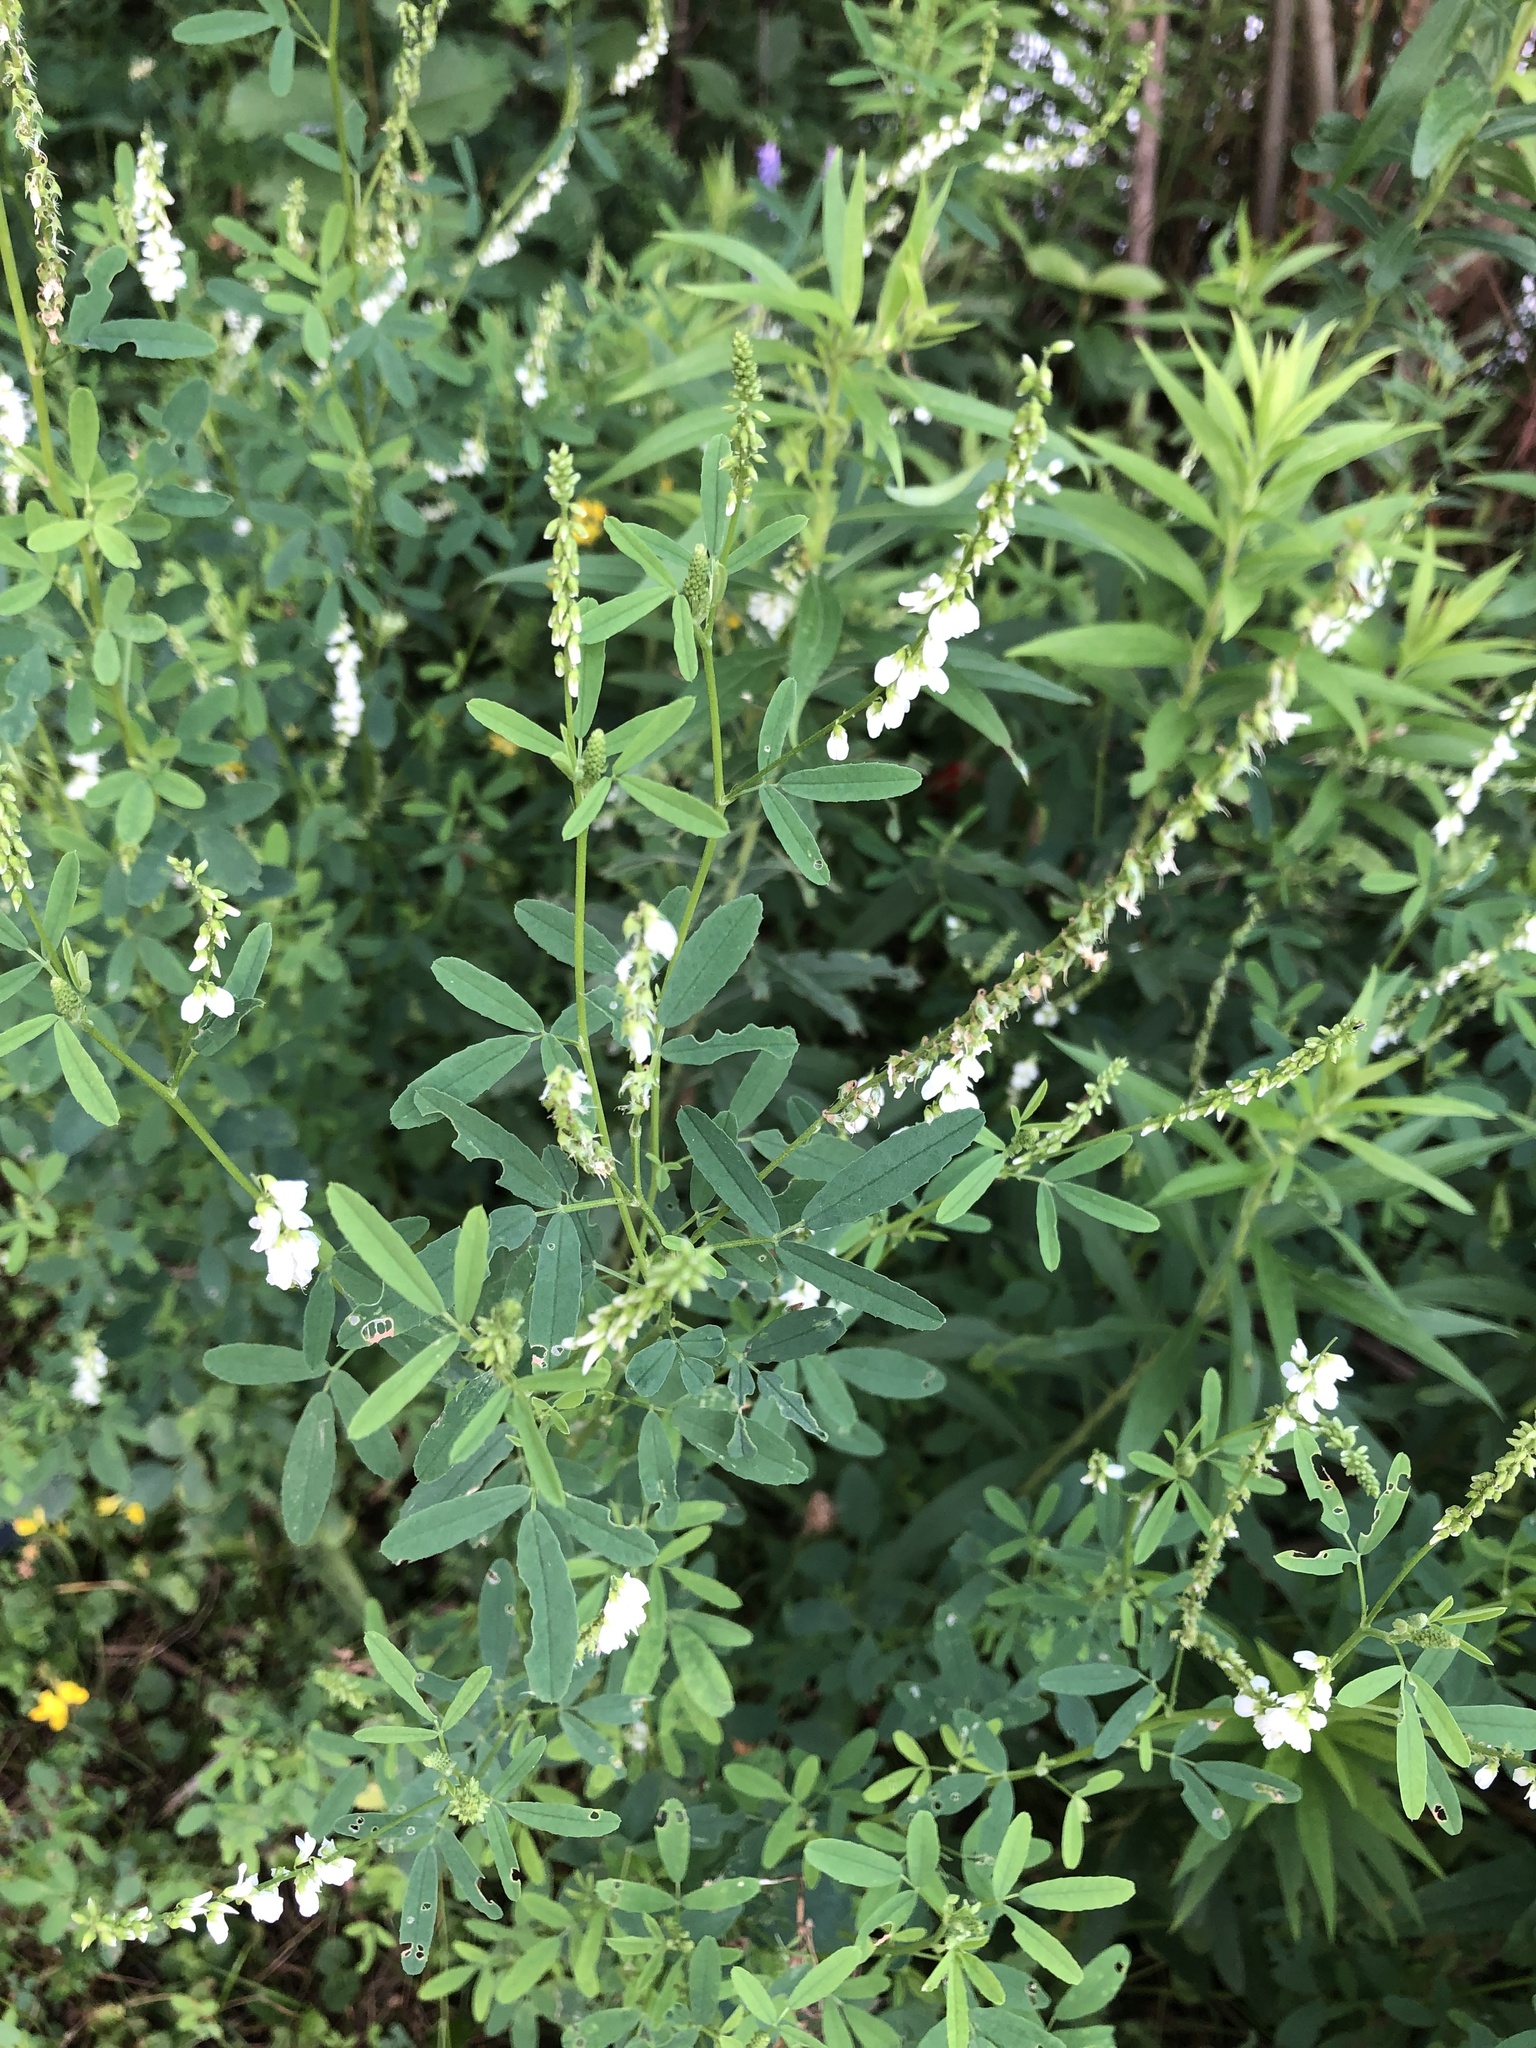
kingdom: Plantae
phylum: Tracheophyta
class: Magnoliopsida
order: Fabales
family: Fabaceae
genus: Melilotus
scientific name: Melilotus albus
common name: White melilot
